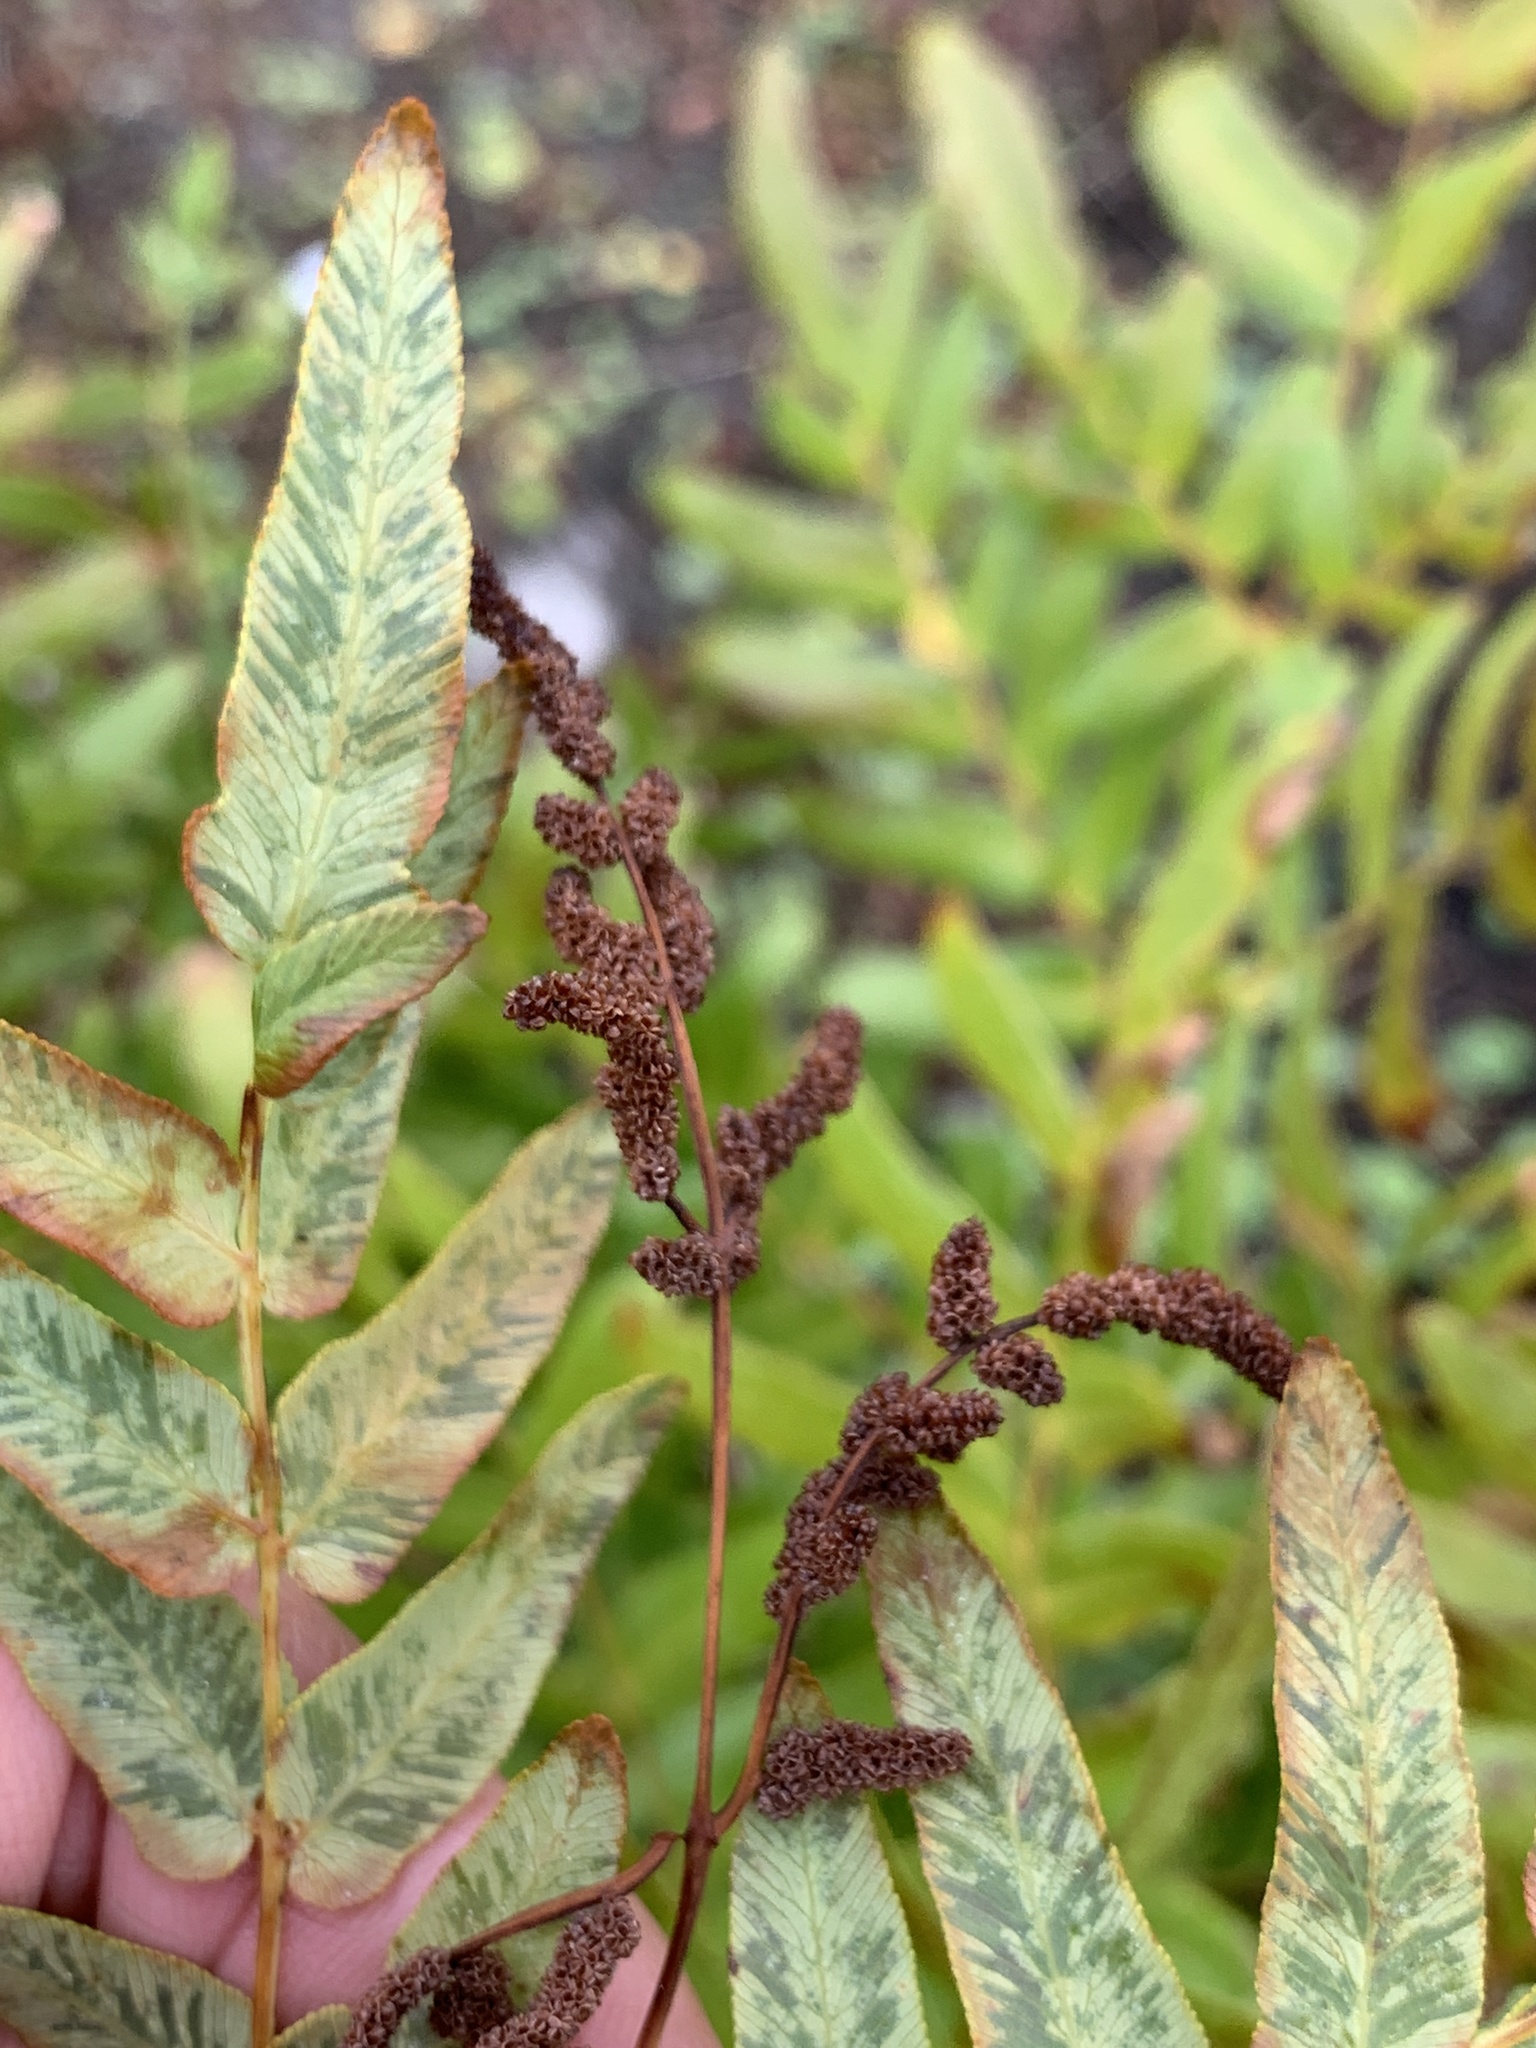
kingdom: Plantae
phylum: Tracheophyta
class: Polypodiopsida
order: Osmundales
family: Osmundaceae
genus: Osmunda
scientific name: Osmunda spectabilis
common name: American royal fern
